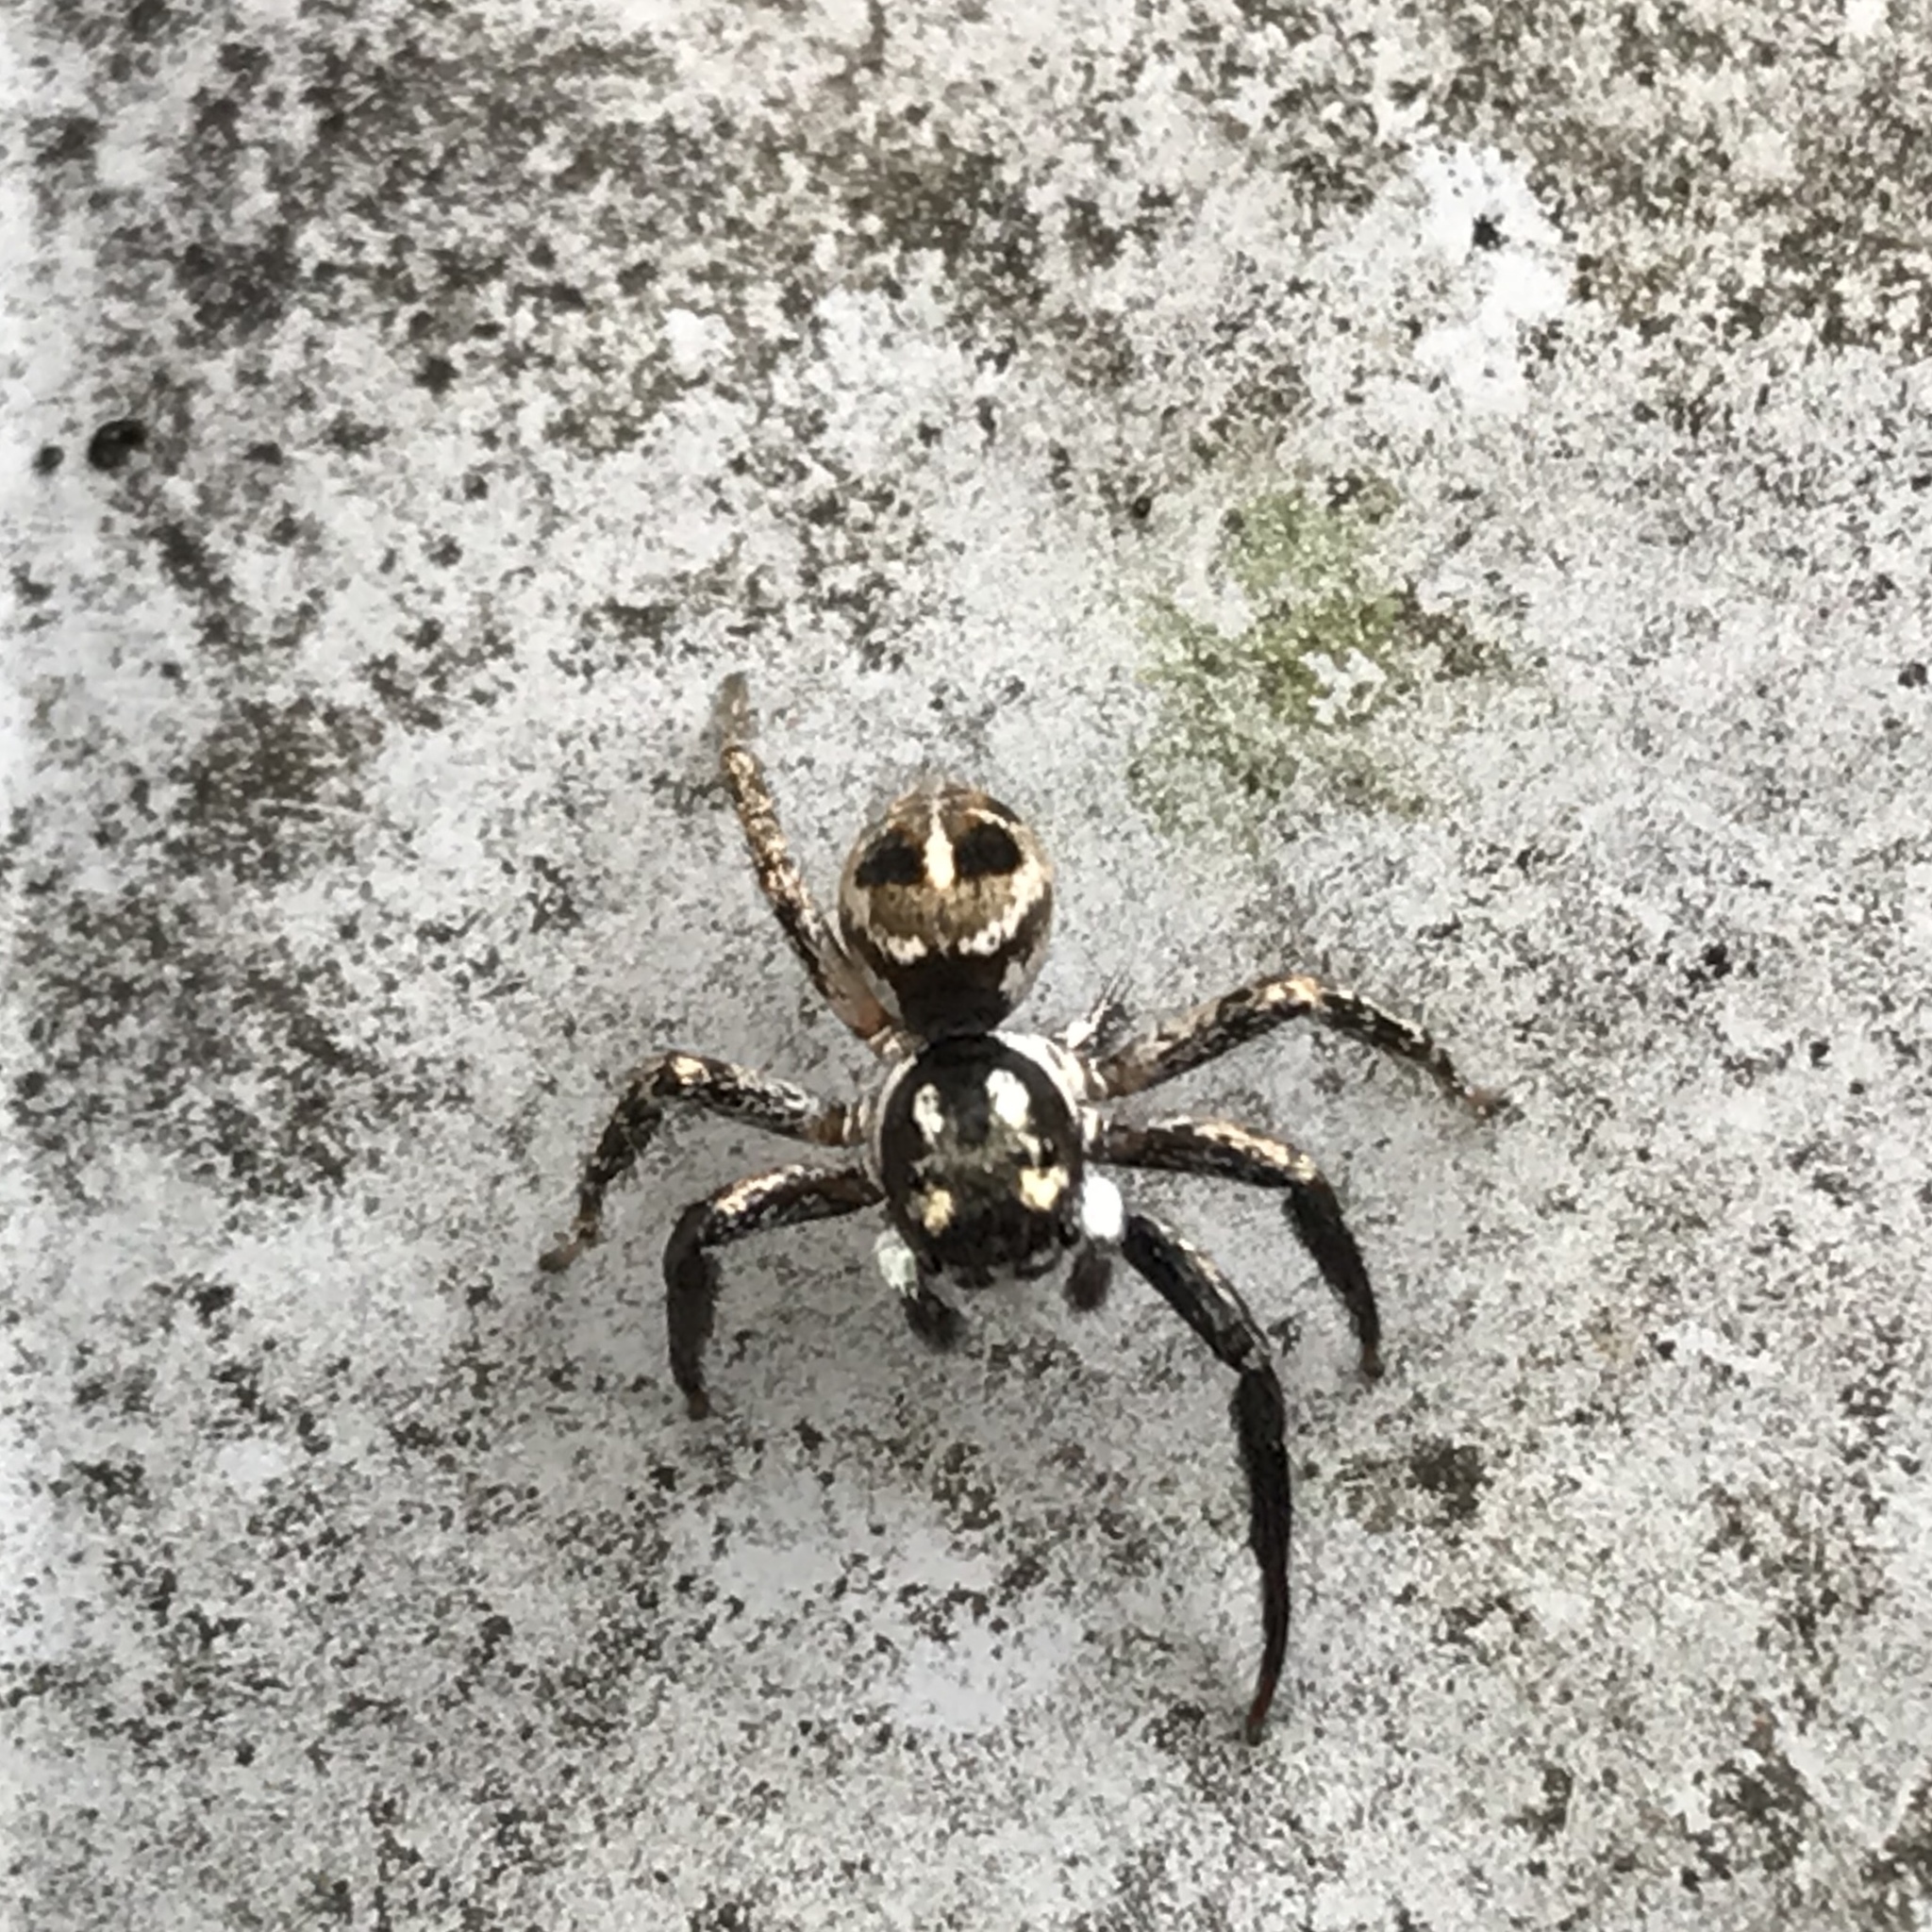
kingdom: Animalia
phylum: Arthropoda
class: Arachnida
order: Araneae
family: Salticidae
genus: Anasaitis
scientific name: Anasaitis canosa
